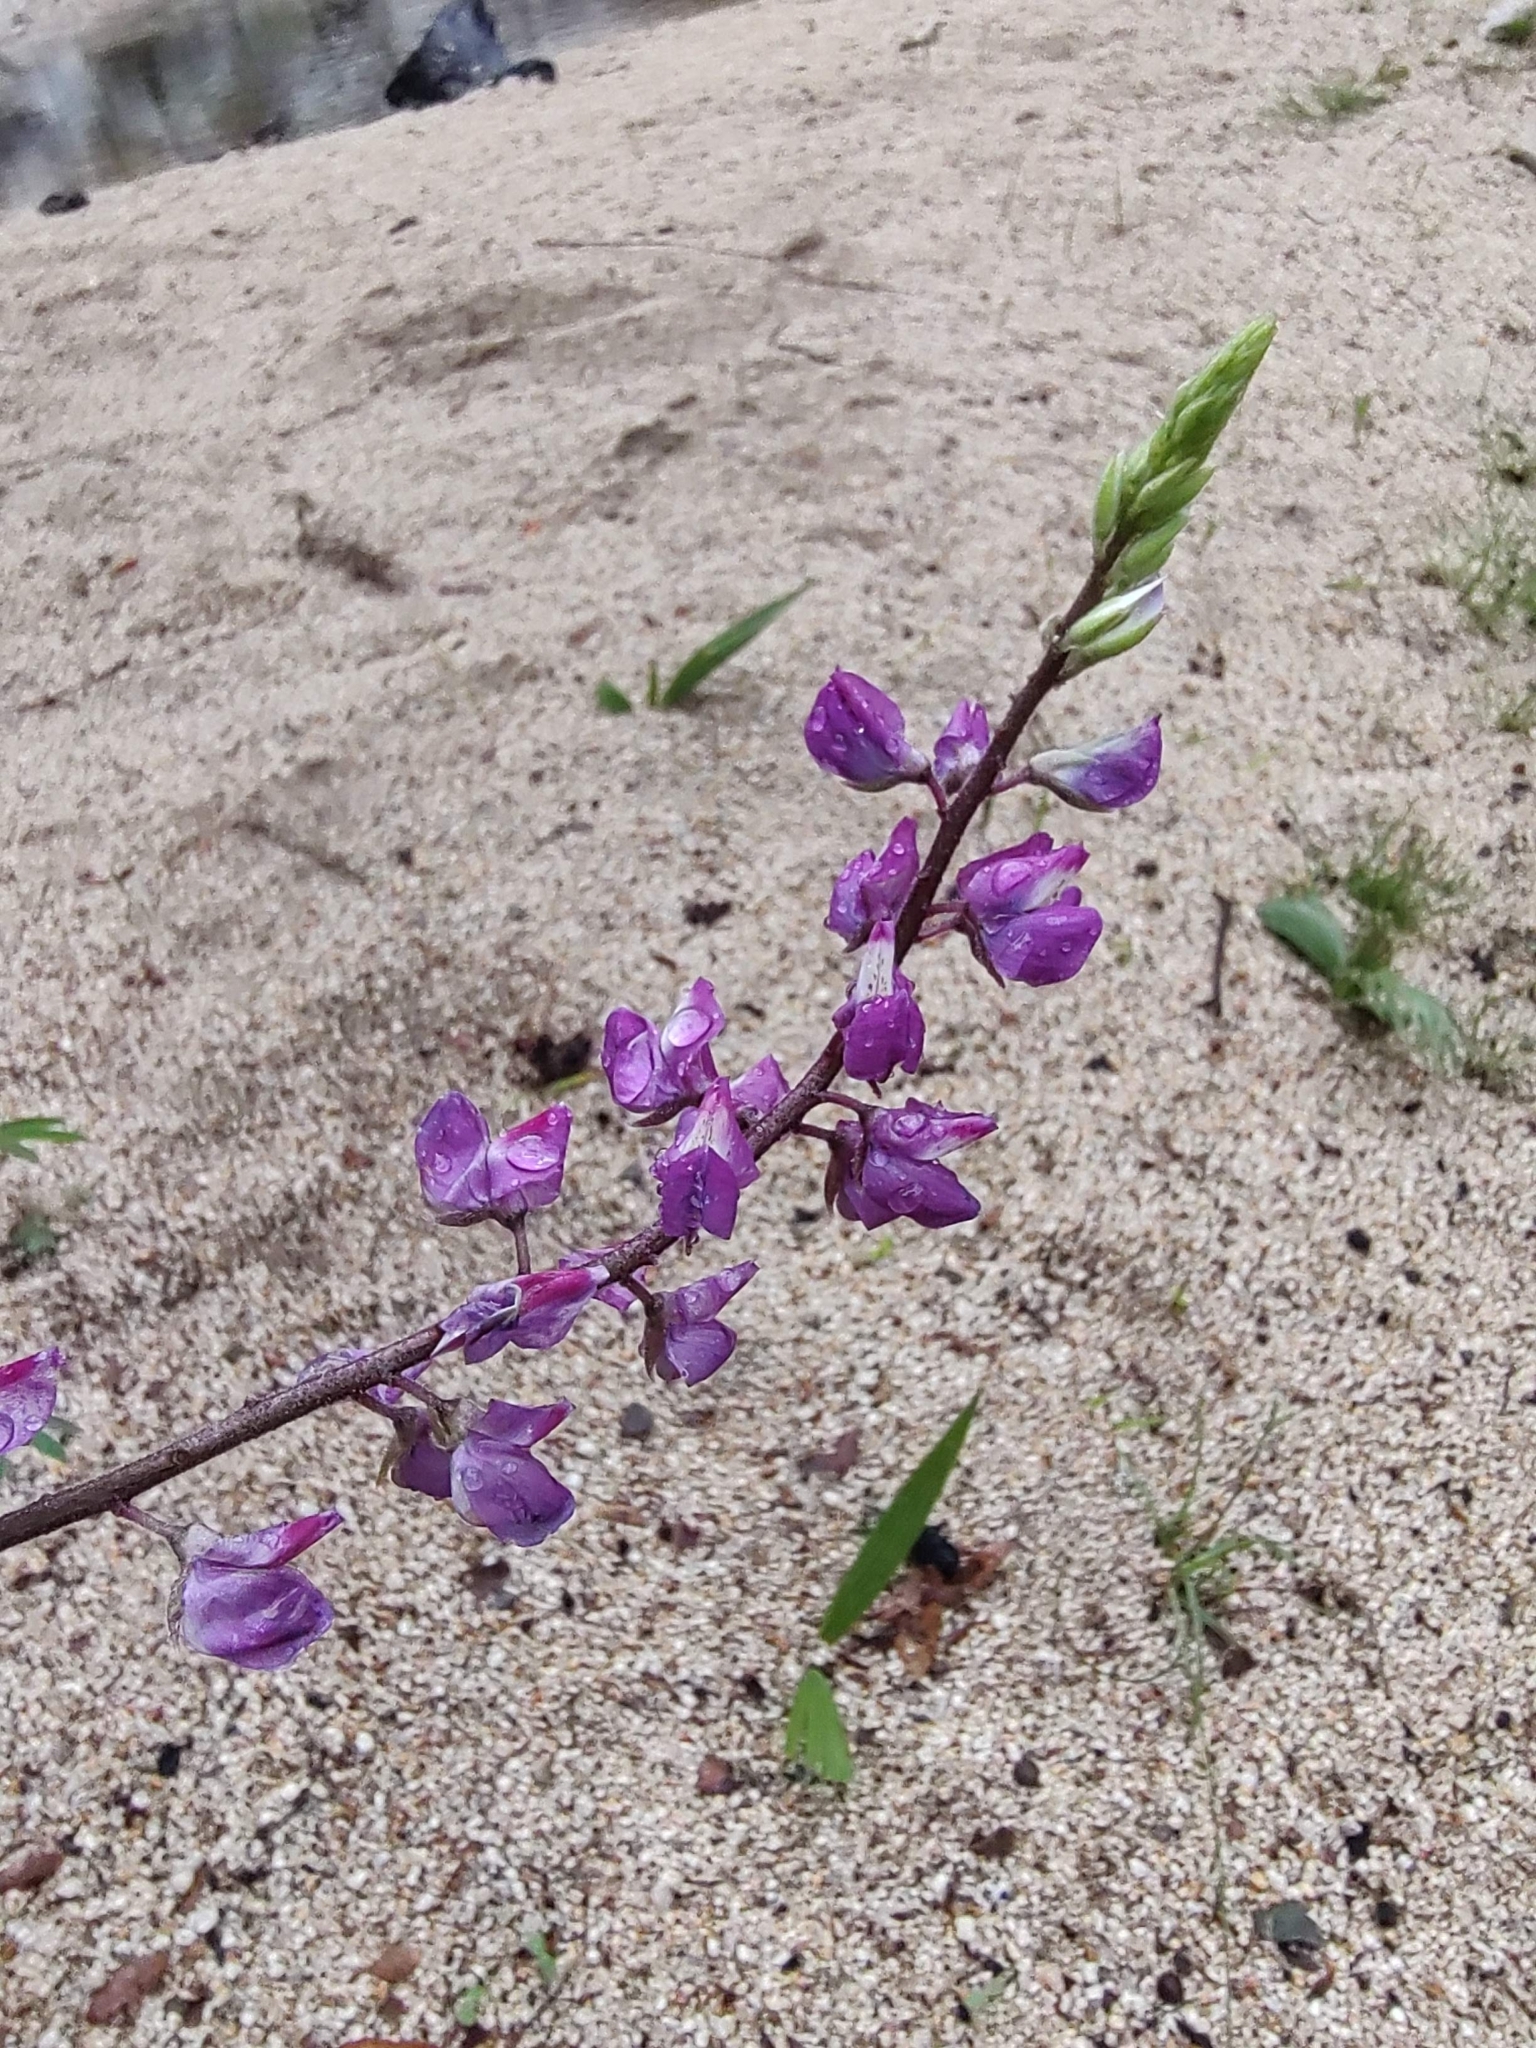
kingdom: Plantae
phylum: Tracheophyta
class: Magnoliopsida
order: Fabales
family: Fabaceae
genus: Lupinus
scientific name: Lupinus arizonicus
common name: Arizona lupine
